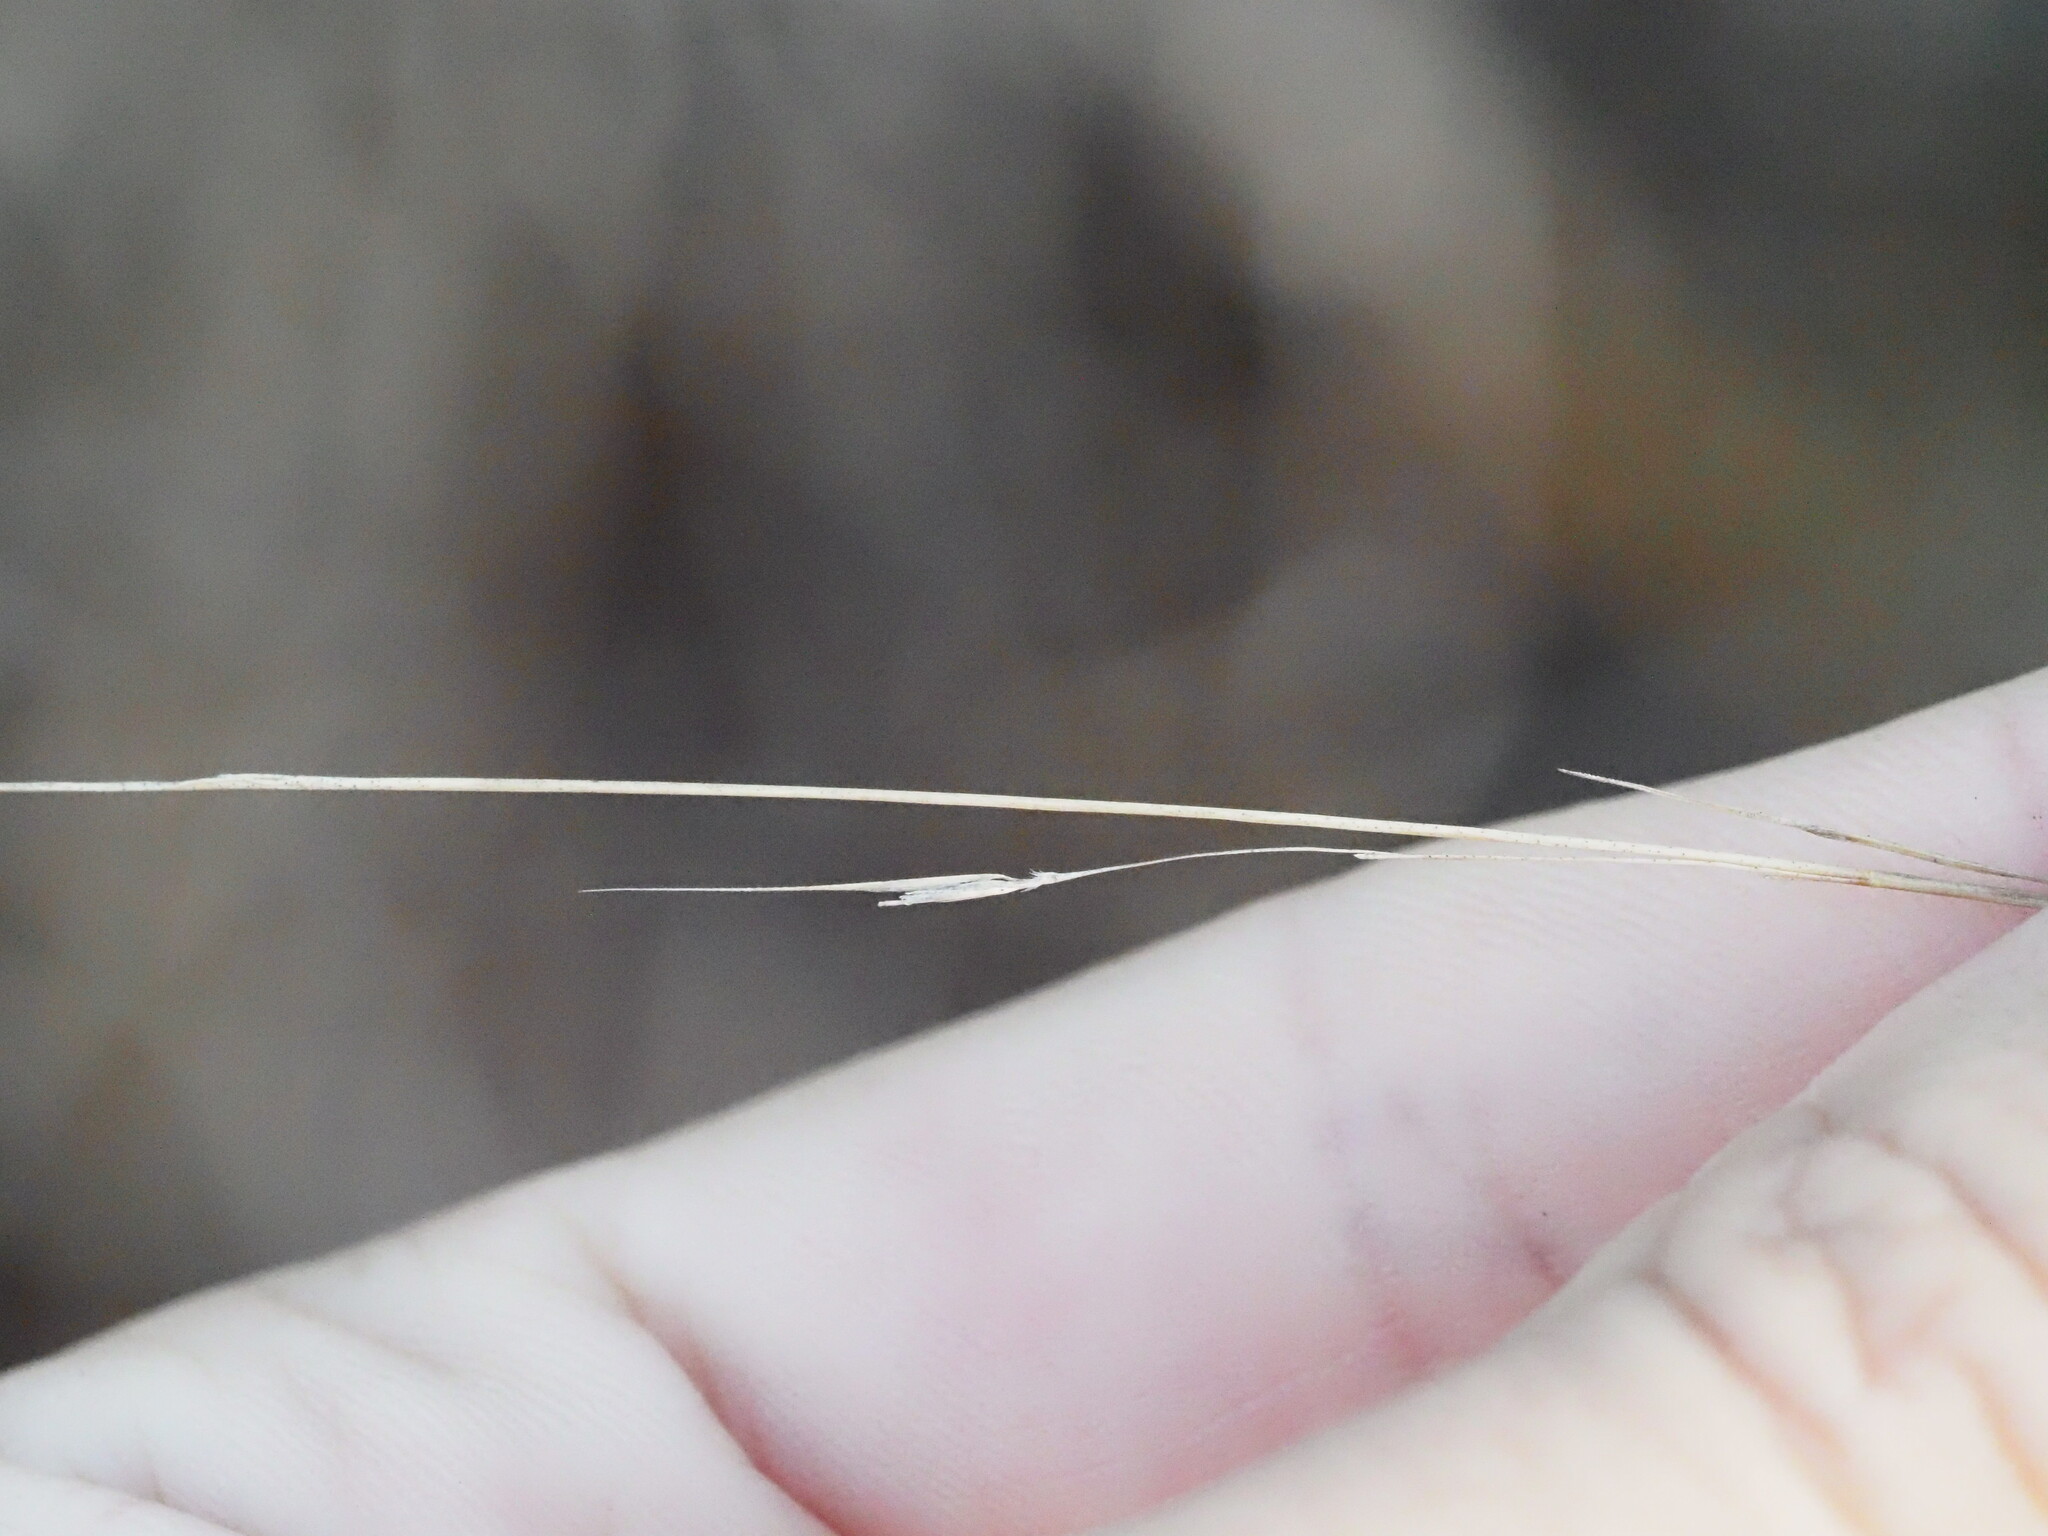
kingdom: Plantae
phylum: Tracheophyta
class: Liliopsida
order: Poales
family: Poaceae
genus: Microlaena
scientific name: Microlaena stipoides
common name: Meadow ricegrass
